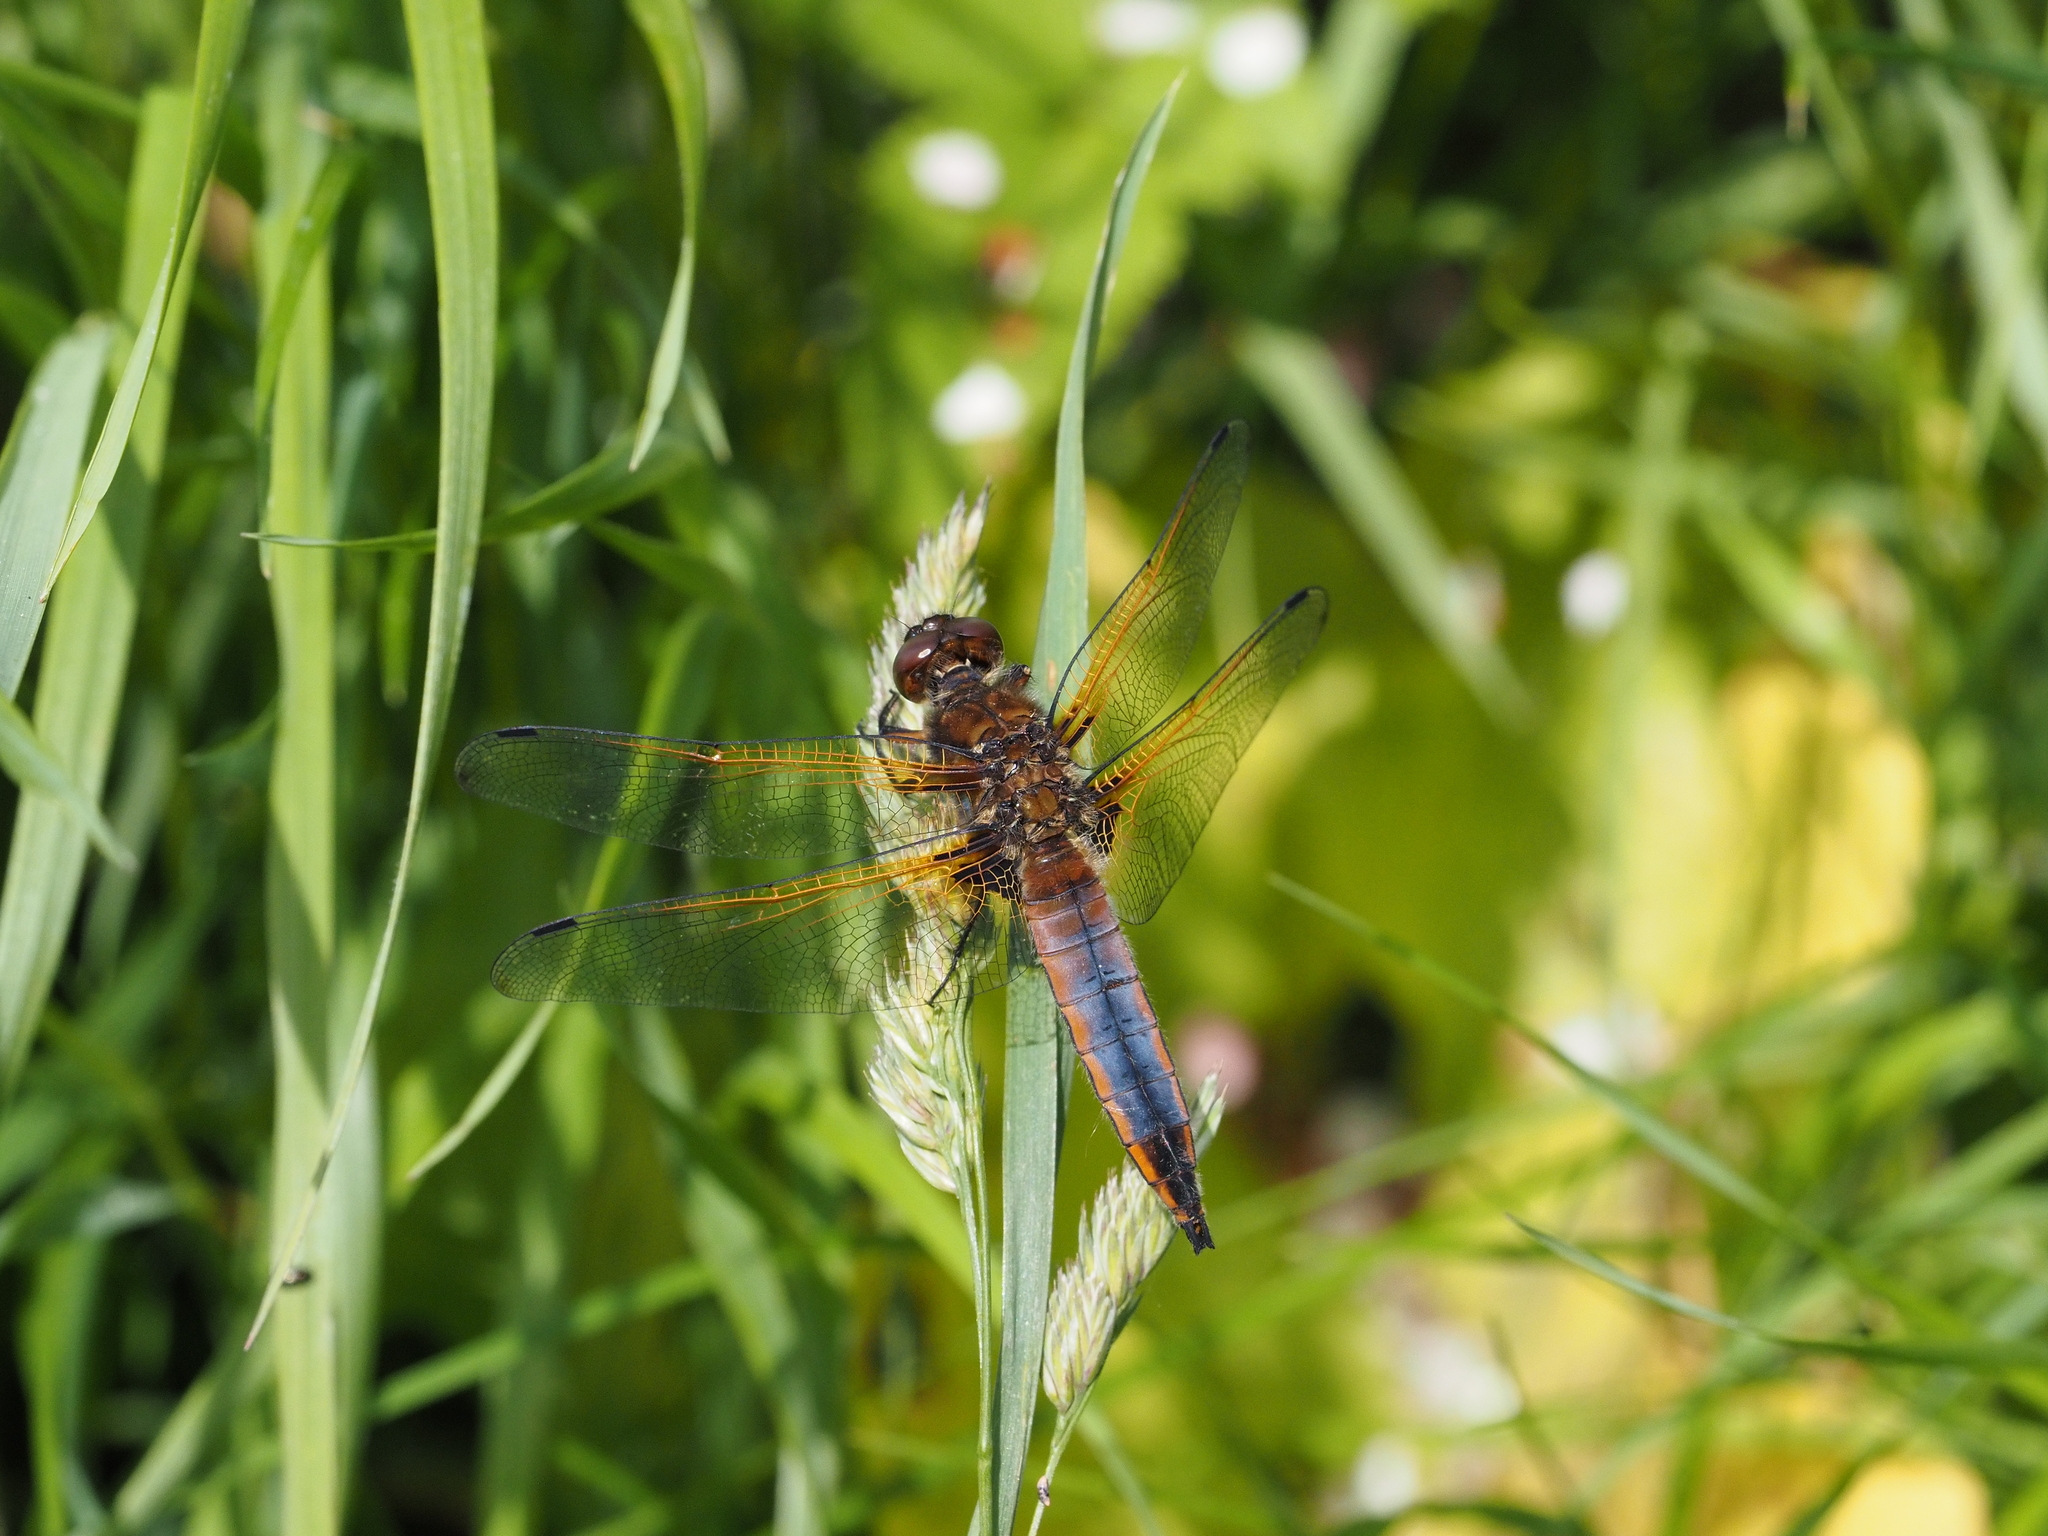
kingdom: Animalia
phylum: Arthropoda
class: Insecta
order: Odonata
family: Libellulidae
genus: Libellula
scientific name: Libellula fulva
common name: Blue chaser
